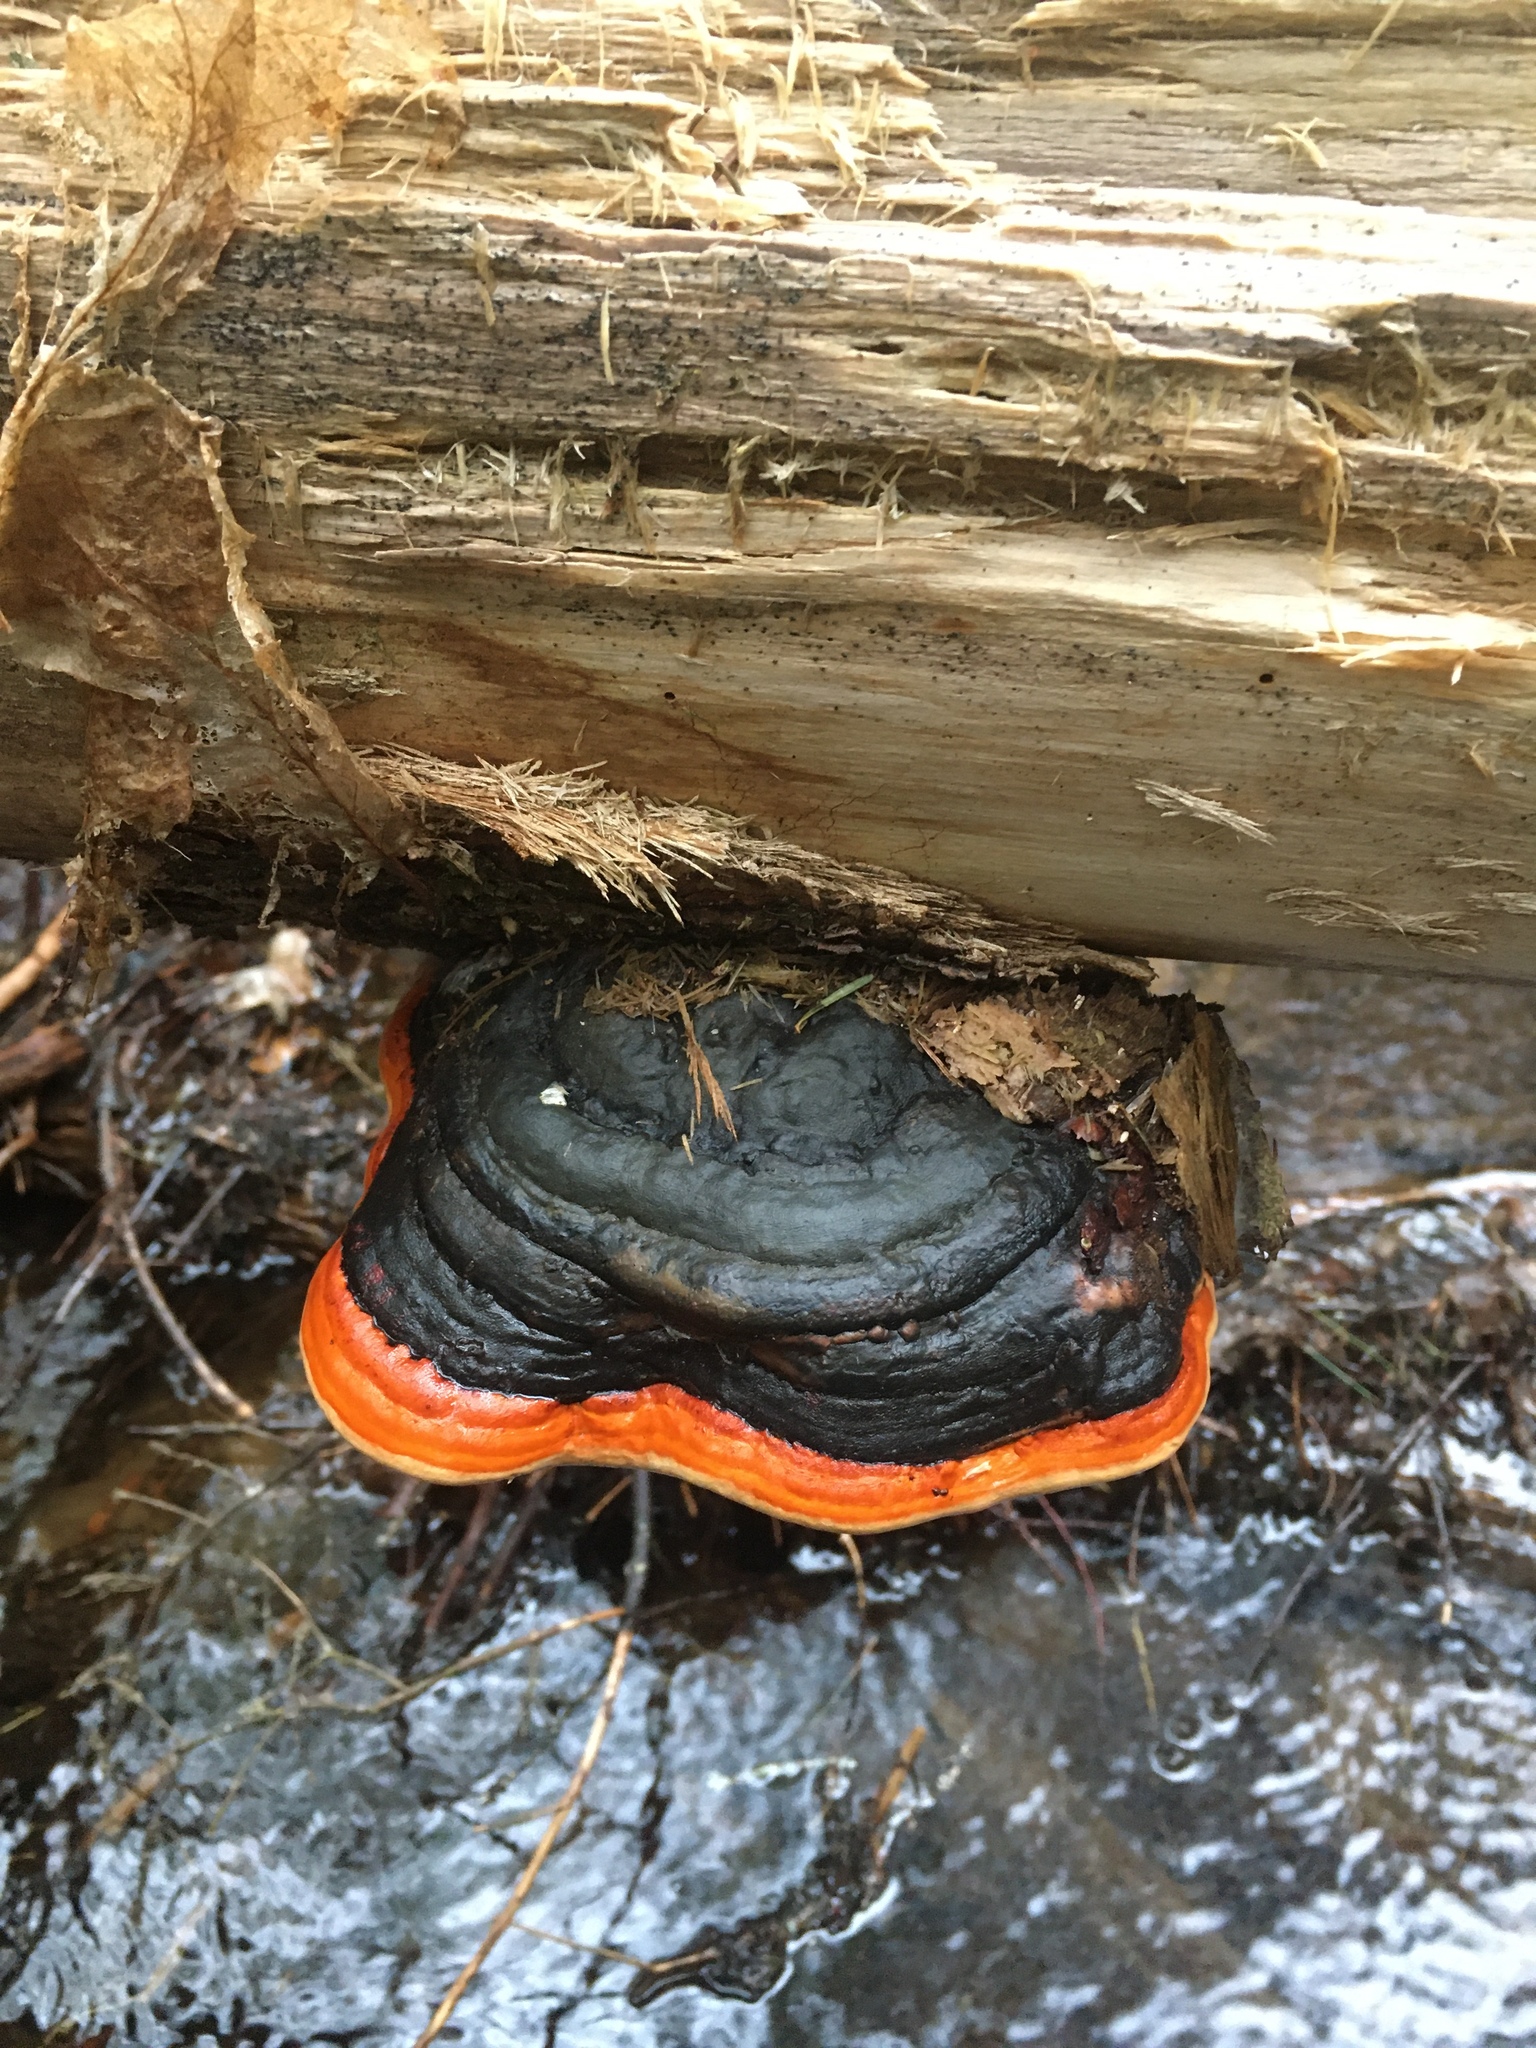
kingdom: Fungi
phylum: Basidiomycota
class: Agaricomycetes
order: Polyporales
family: Fomitopsidaceae
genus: Fomitopsis
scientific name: Fomitopsis mounceae
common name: Northern red belt
